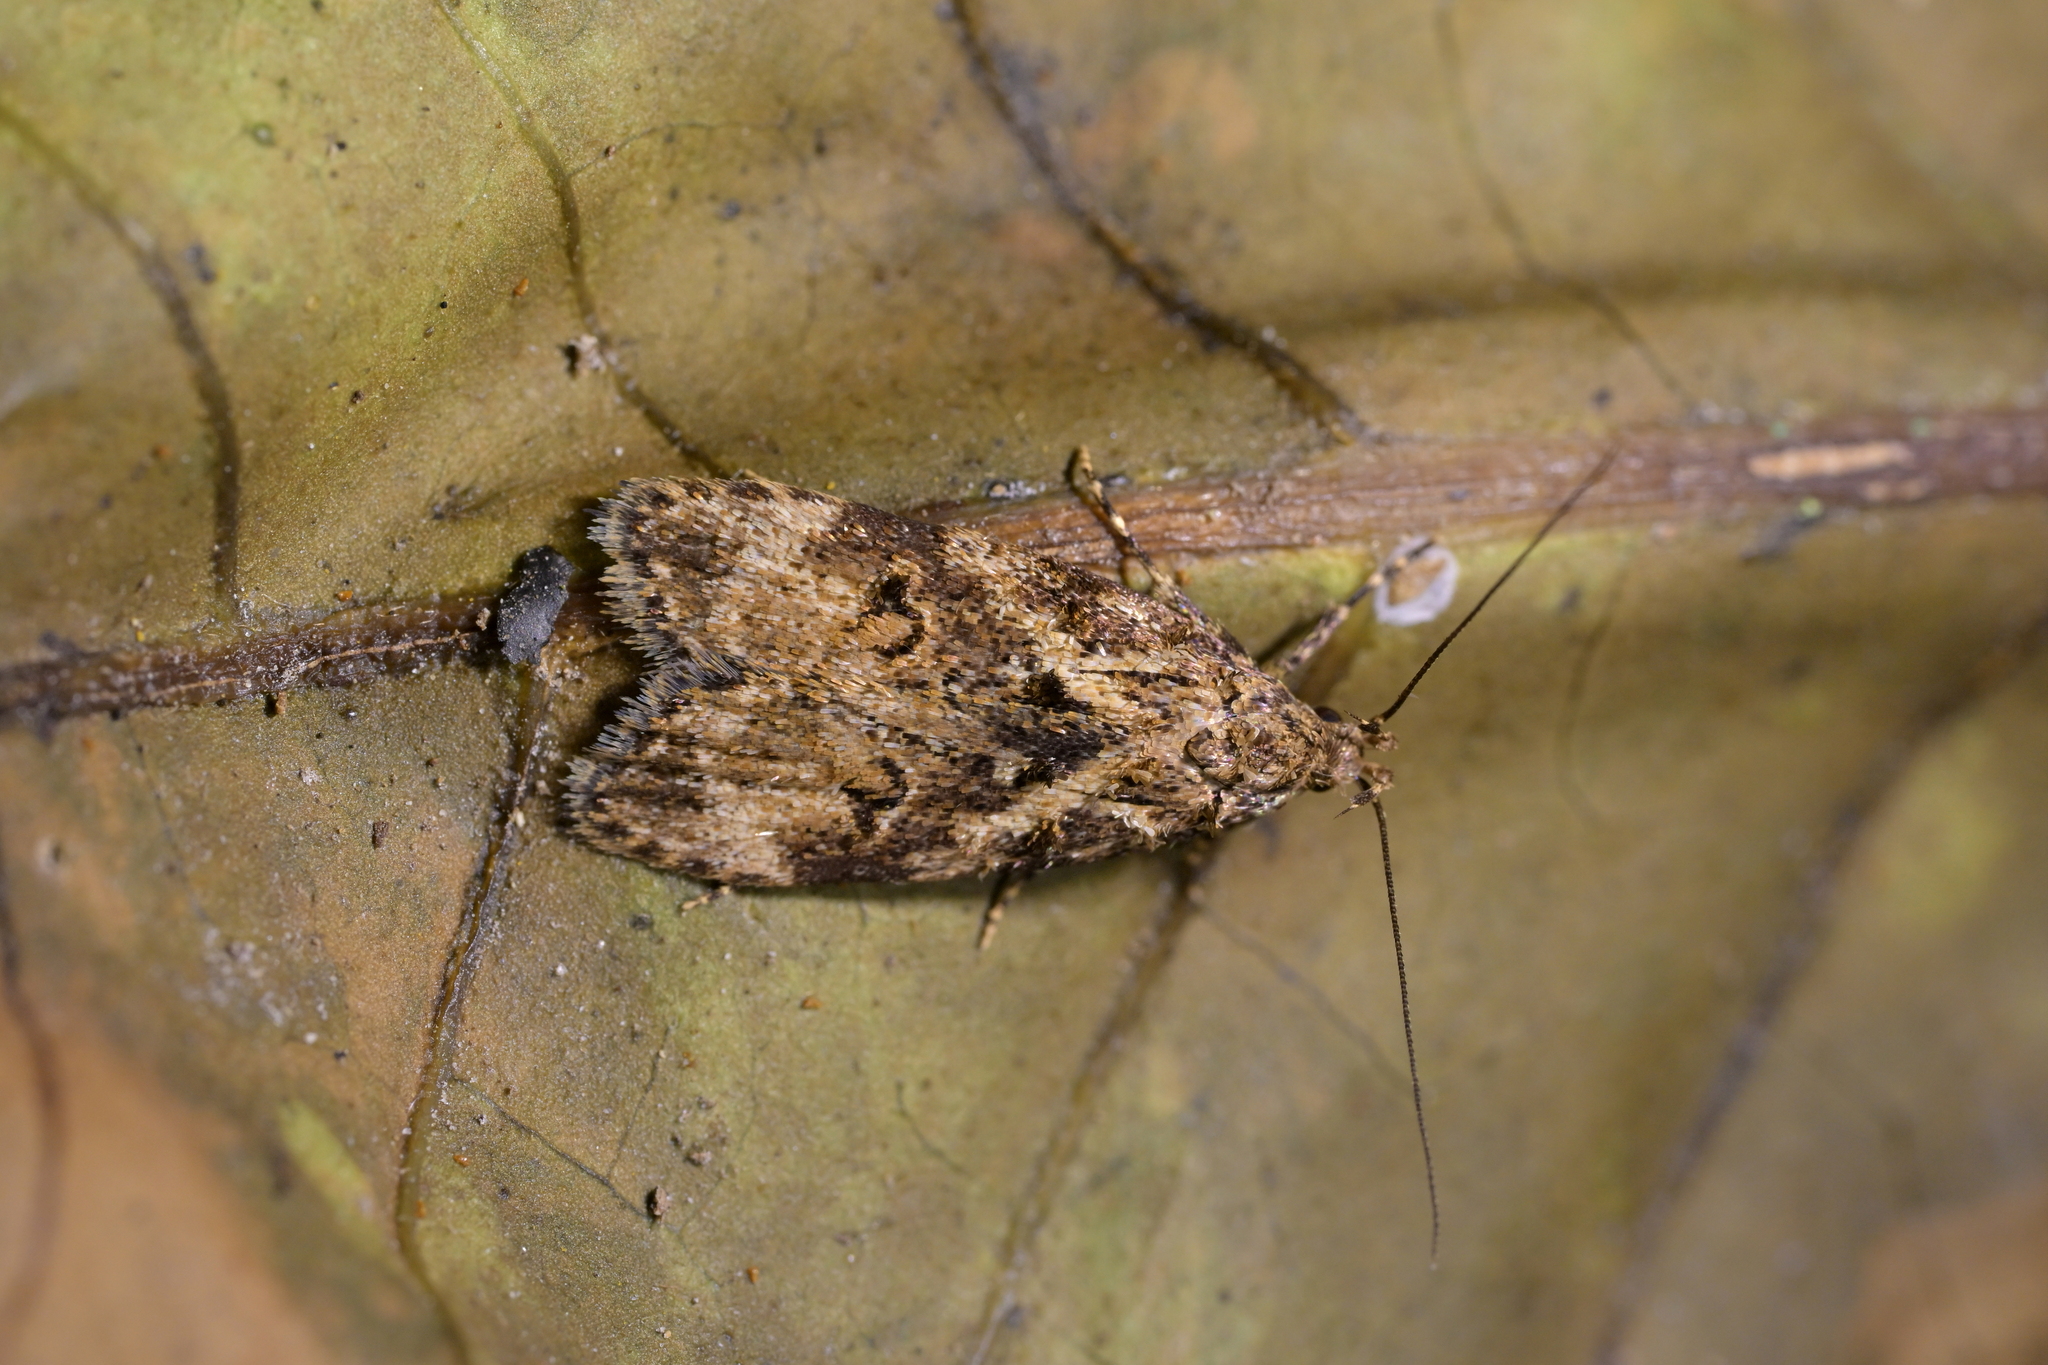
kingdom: Animalia
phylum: Arthropoda
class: Insecta
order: Lepidoptera
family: Oecophoridae
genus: Izatha
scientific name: Izatha austera
